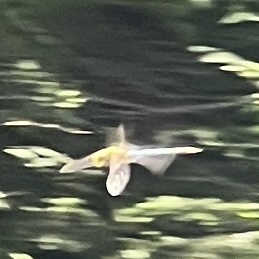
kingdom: Animalia
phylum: Arthropoda
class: Insecta
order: Odonata
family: Aeshnidae
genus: Anax
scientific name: Anax junius
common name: Common green darner
